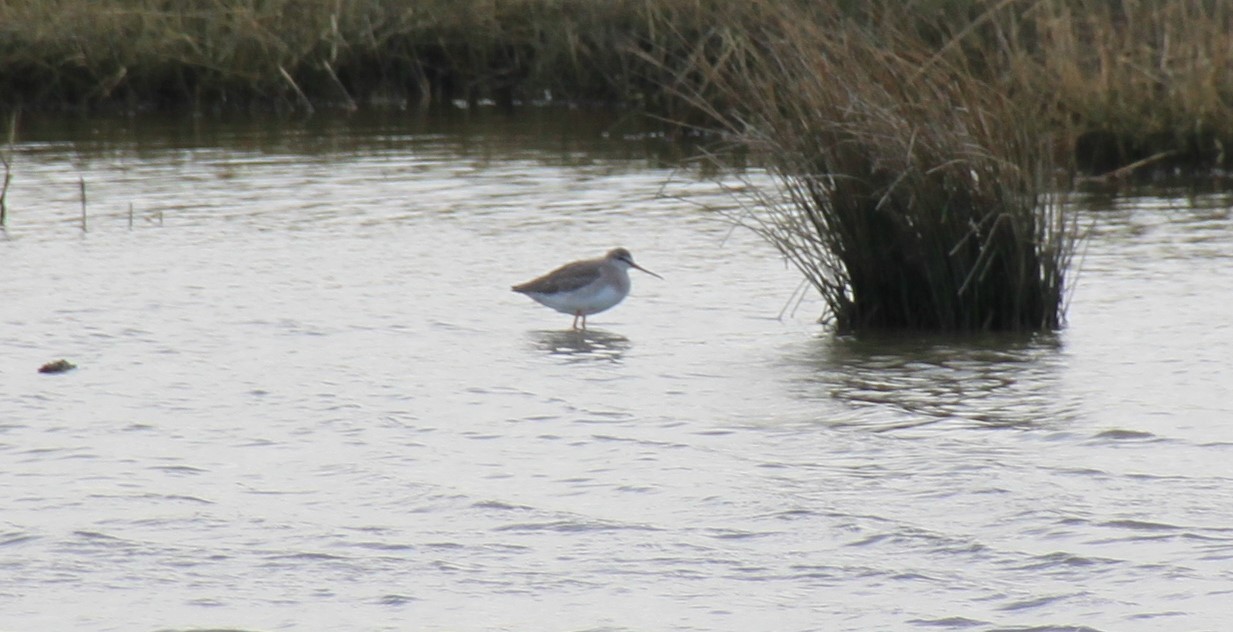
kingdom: Animalia
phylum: Chordata
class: Aves
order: Charadriiformes
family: Scolopacidae
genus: Tringa
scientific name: Tringa erythropus
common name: Spotted redshank
